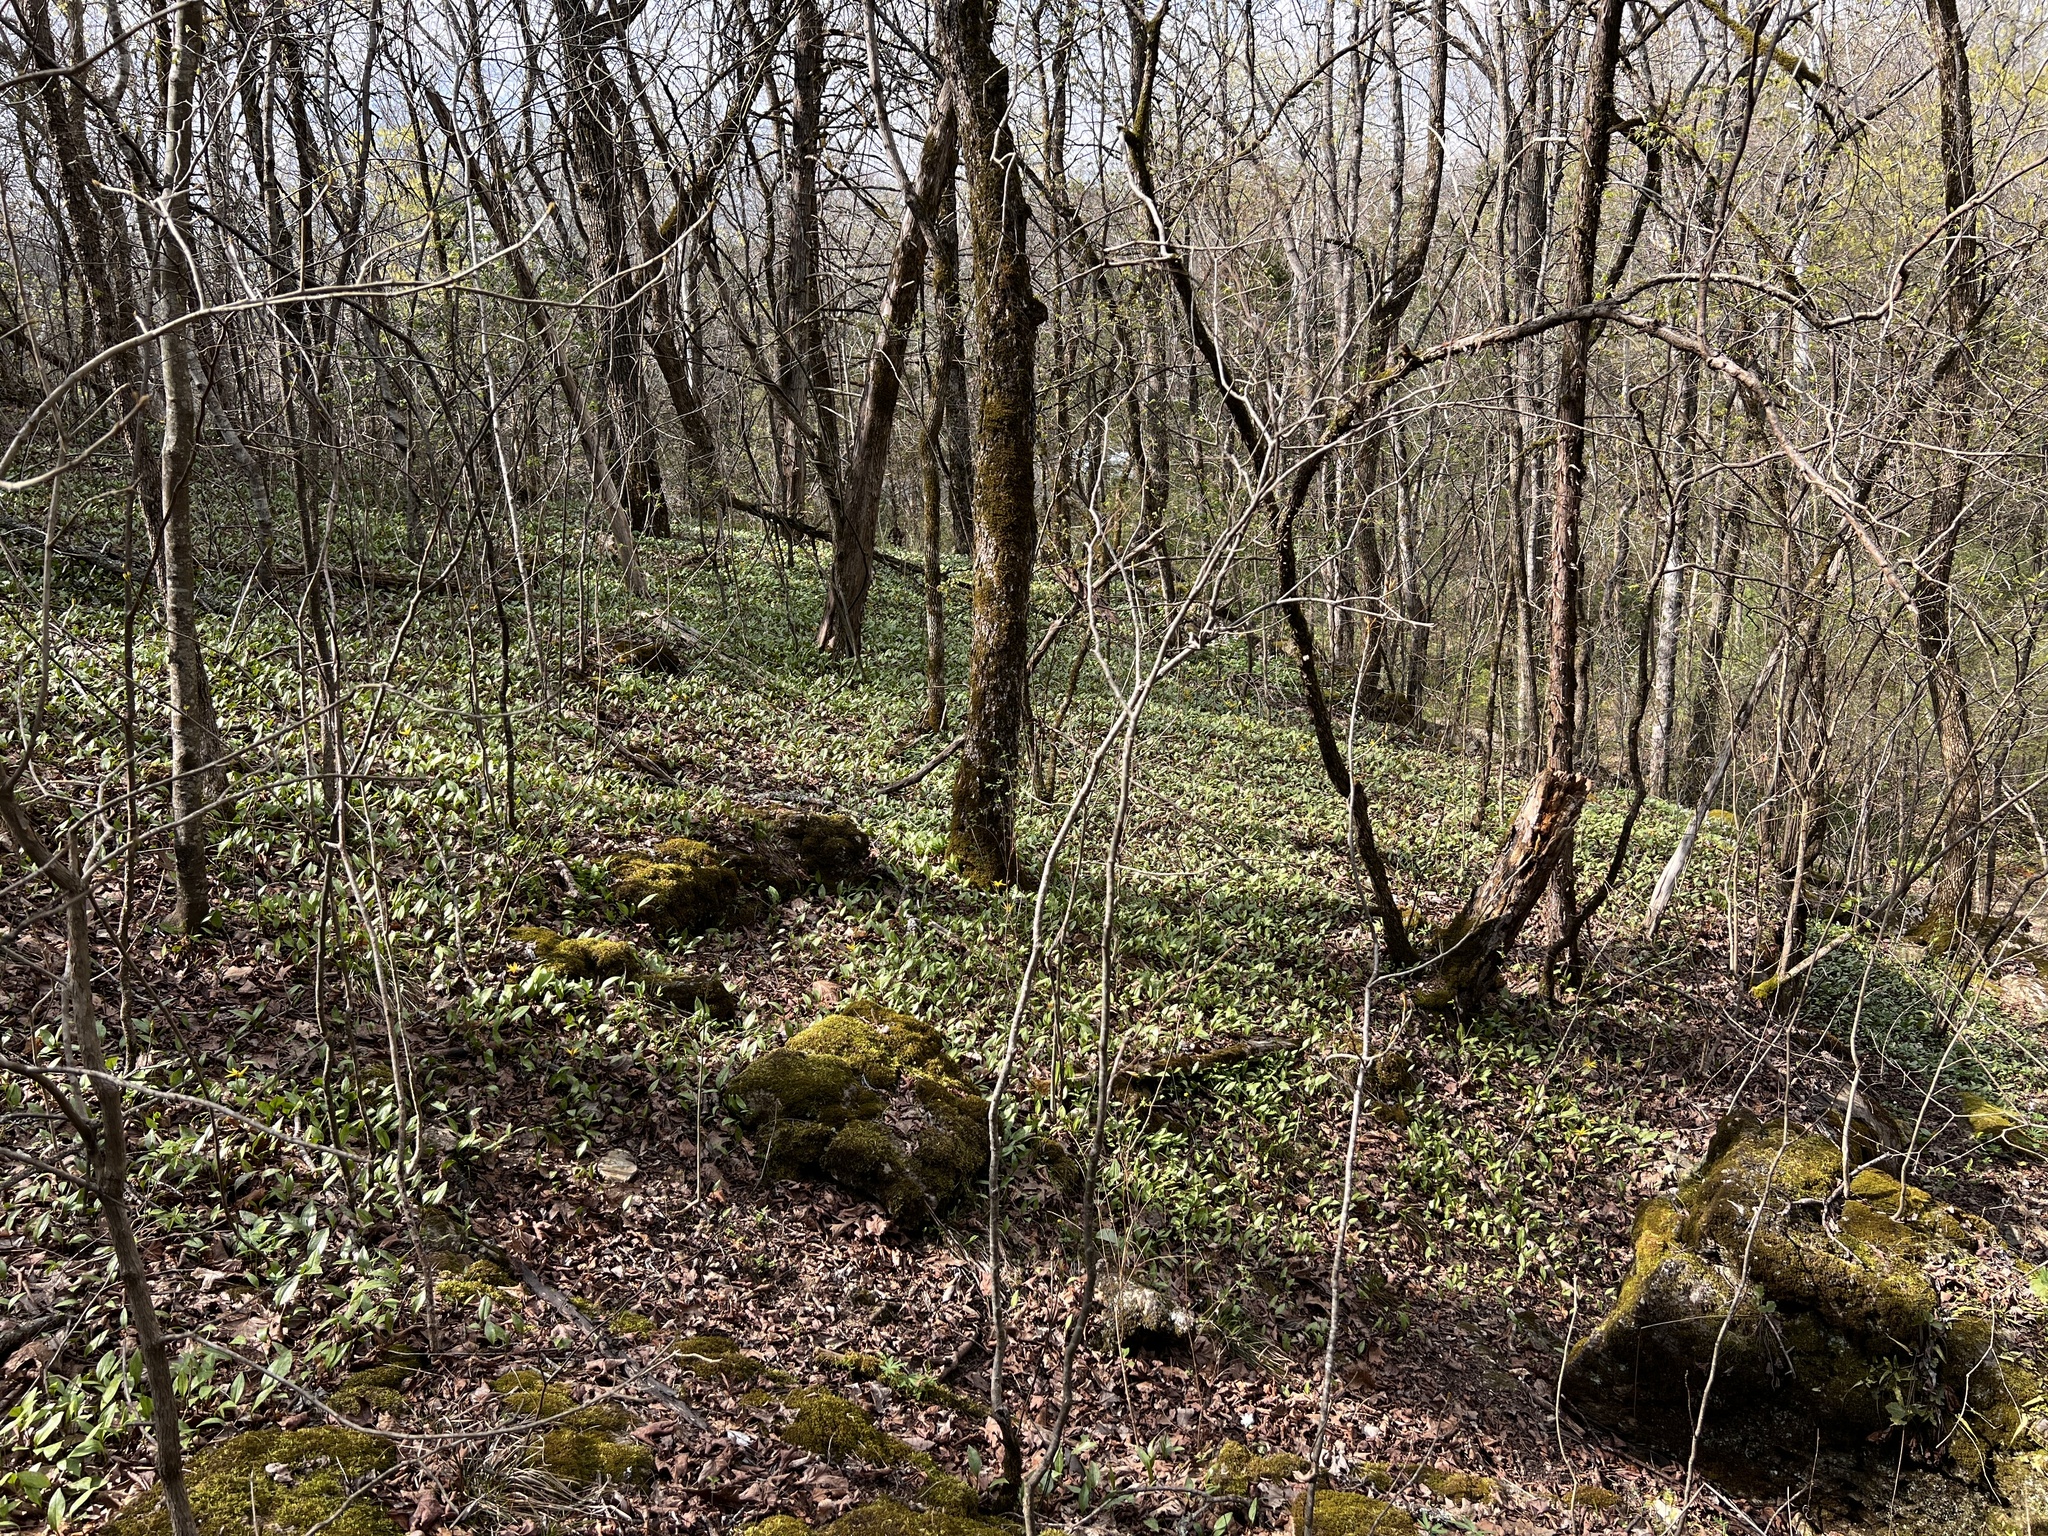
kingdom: Plantae
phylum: Tracheophyta
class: Liliopsida
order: Liliales
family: Liliaceae
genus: Erythronium
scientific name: Erythronium rostratum
